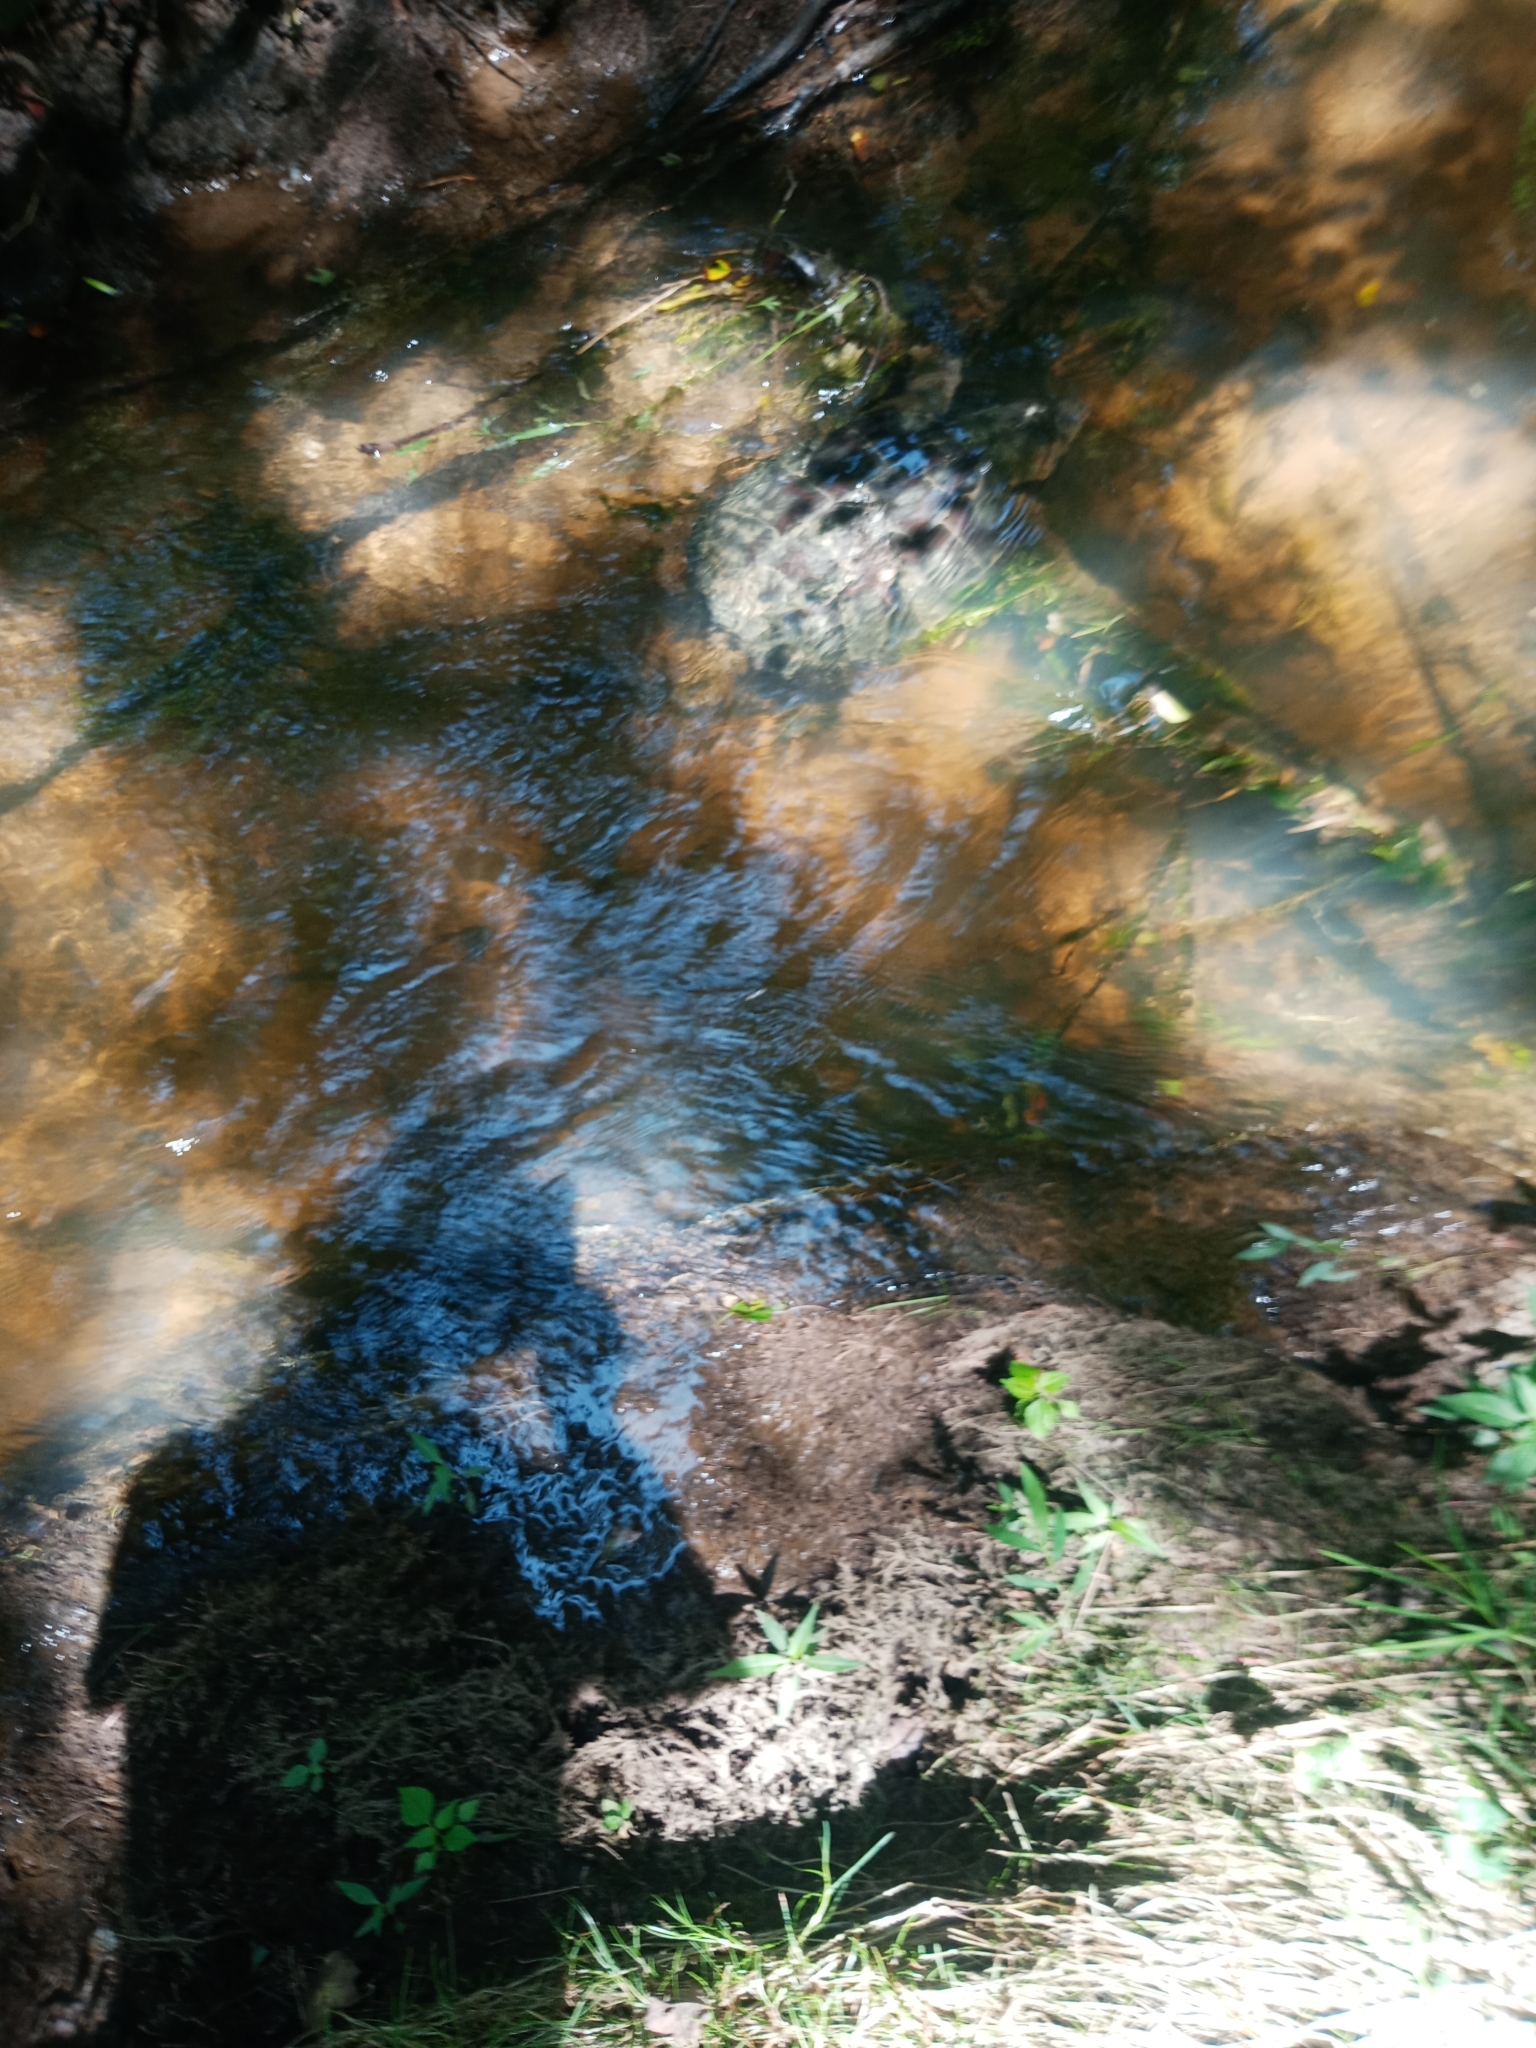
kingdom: Animalia
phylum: Chordata
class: Testudines
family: Chelydridae
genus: Chelydra
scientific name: Chelydra serpentina
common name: Common snapping turtle
